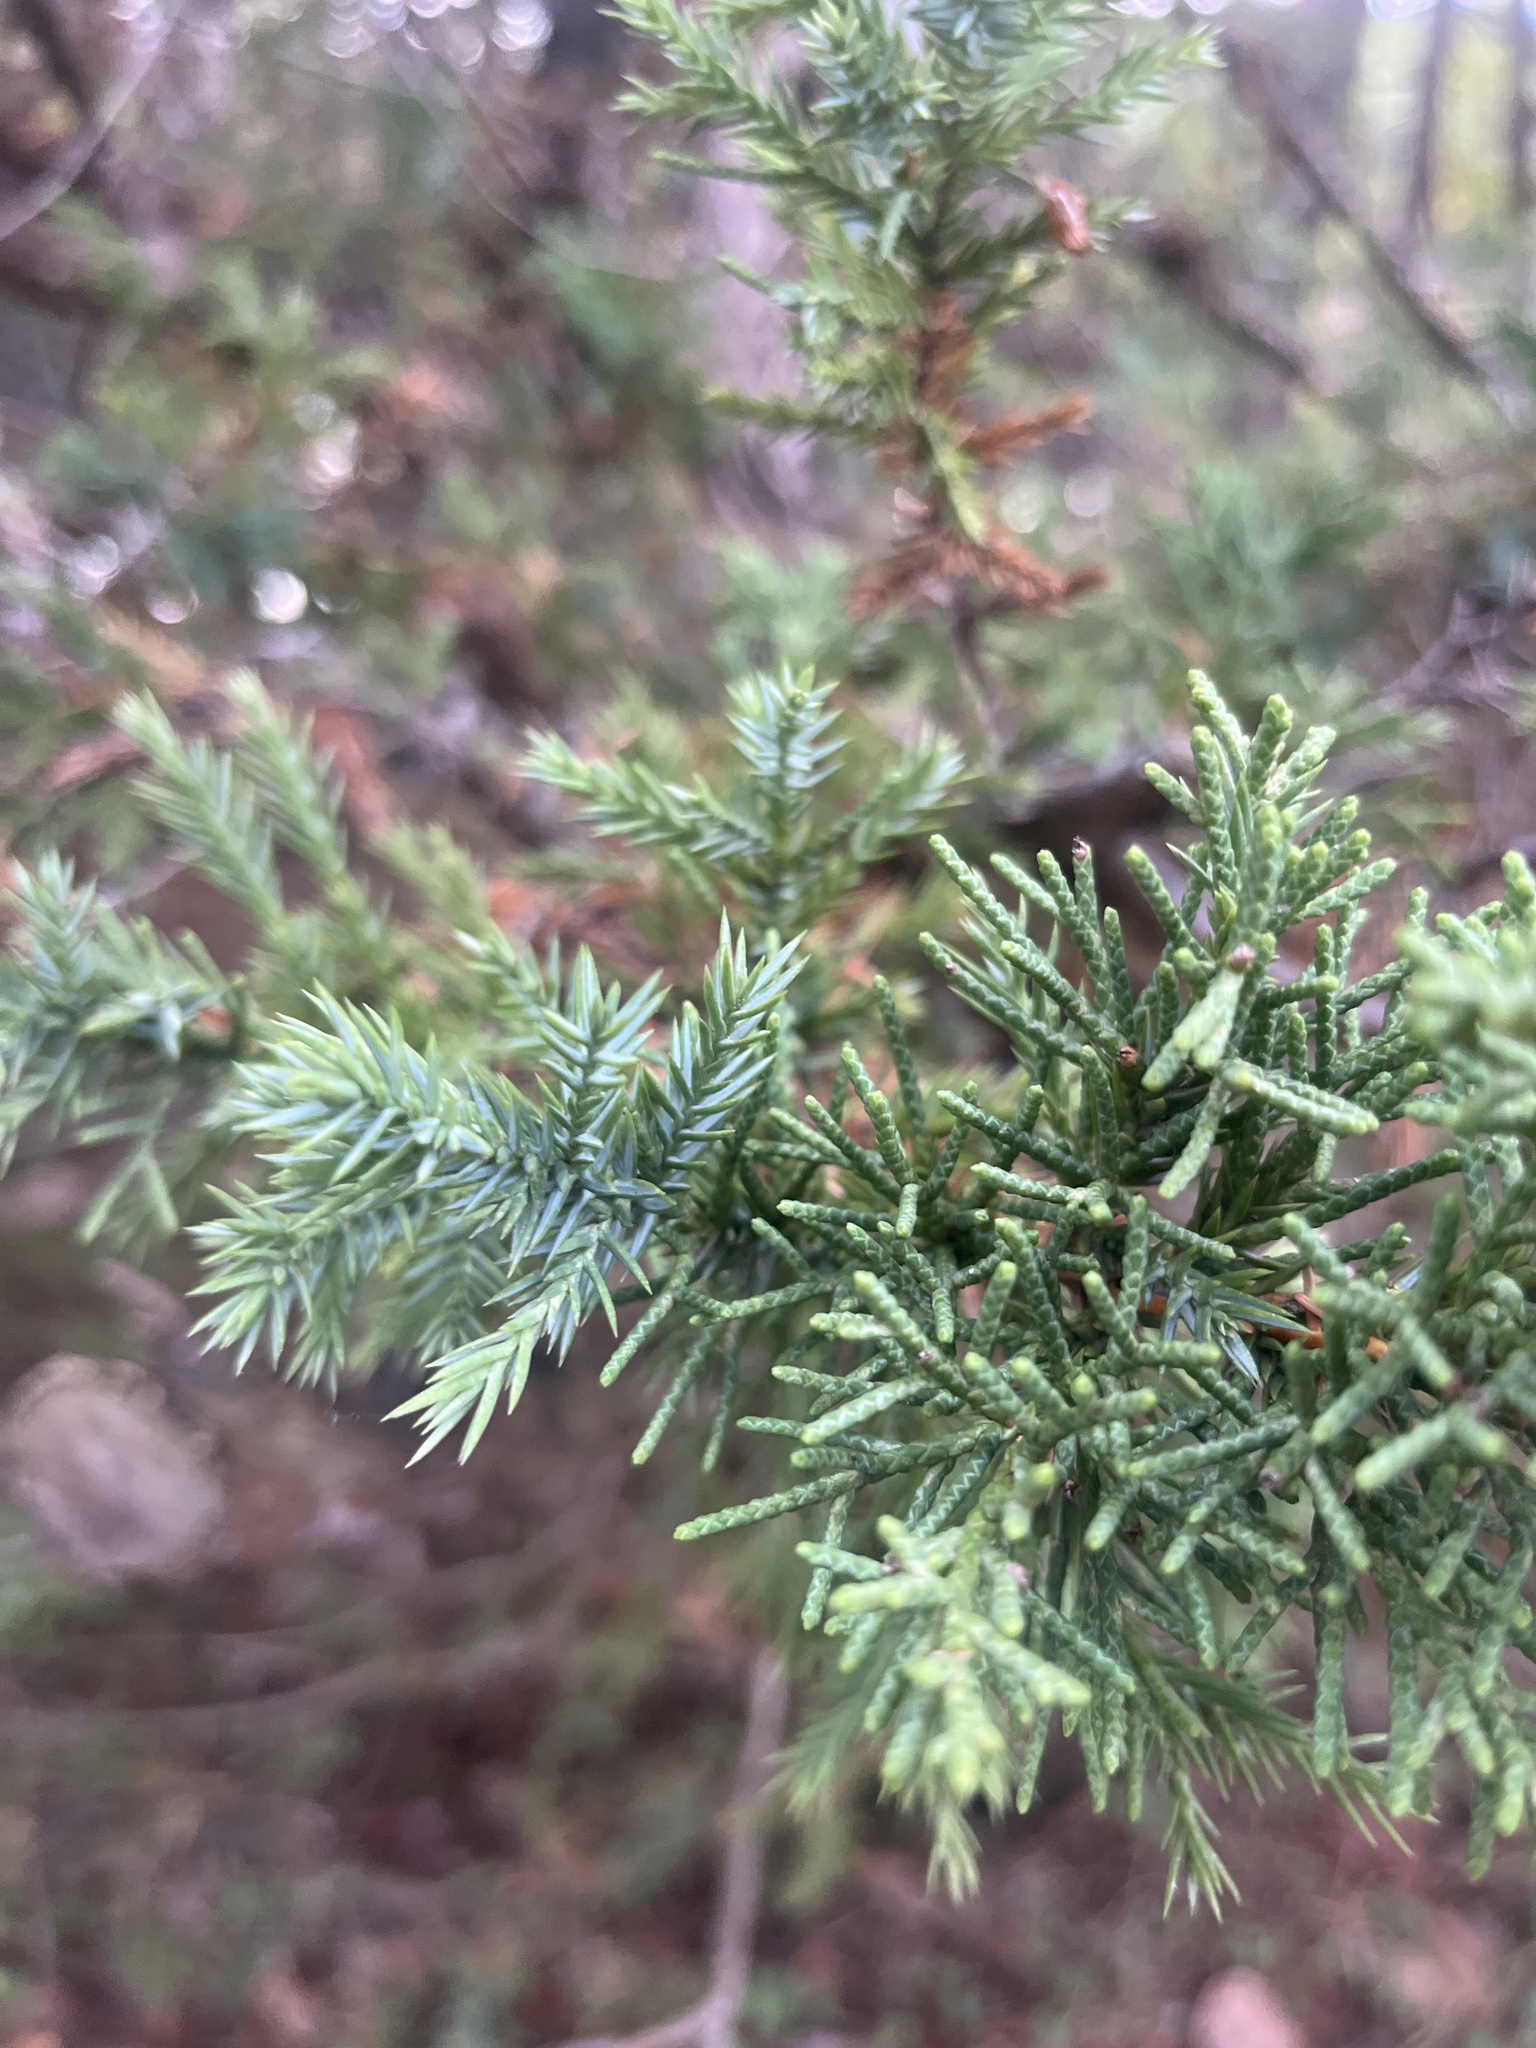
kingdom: Plantae
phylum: Tracheophyta
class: Pinopsida
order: Pinales
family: Cupressaceae
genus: Juniperus
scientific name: Juniperus scopulorum
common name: Rocky mountain juniper
